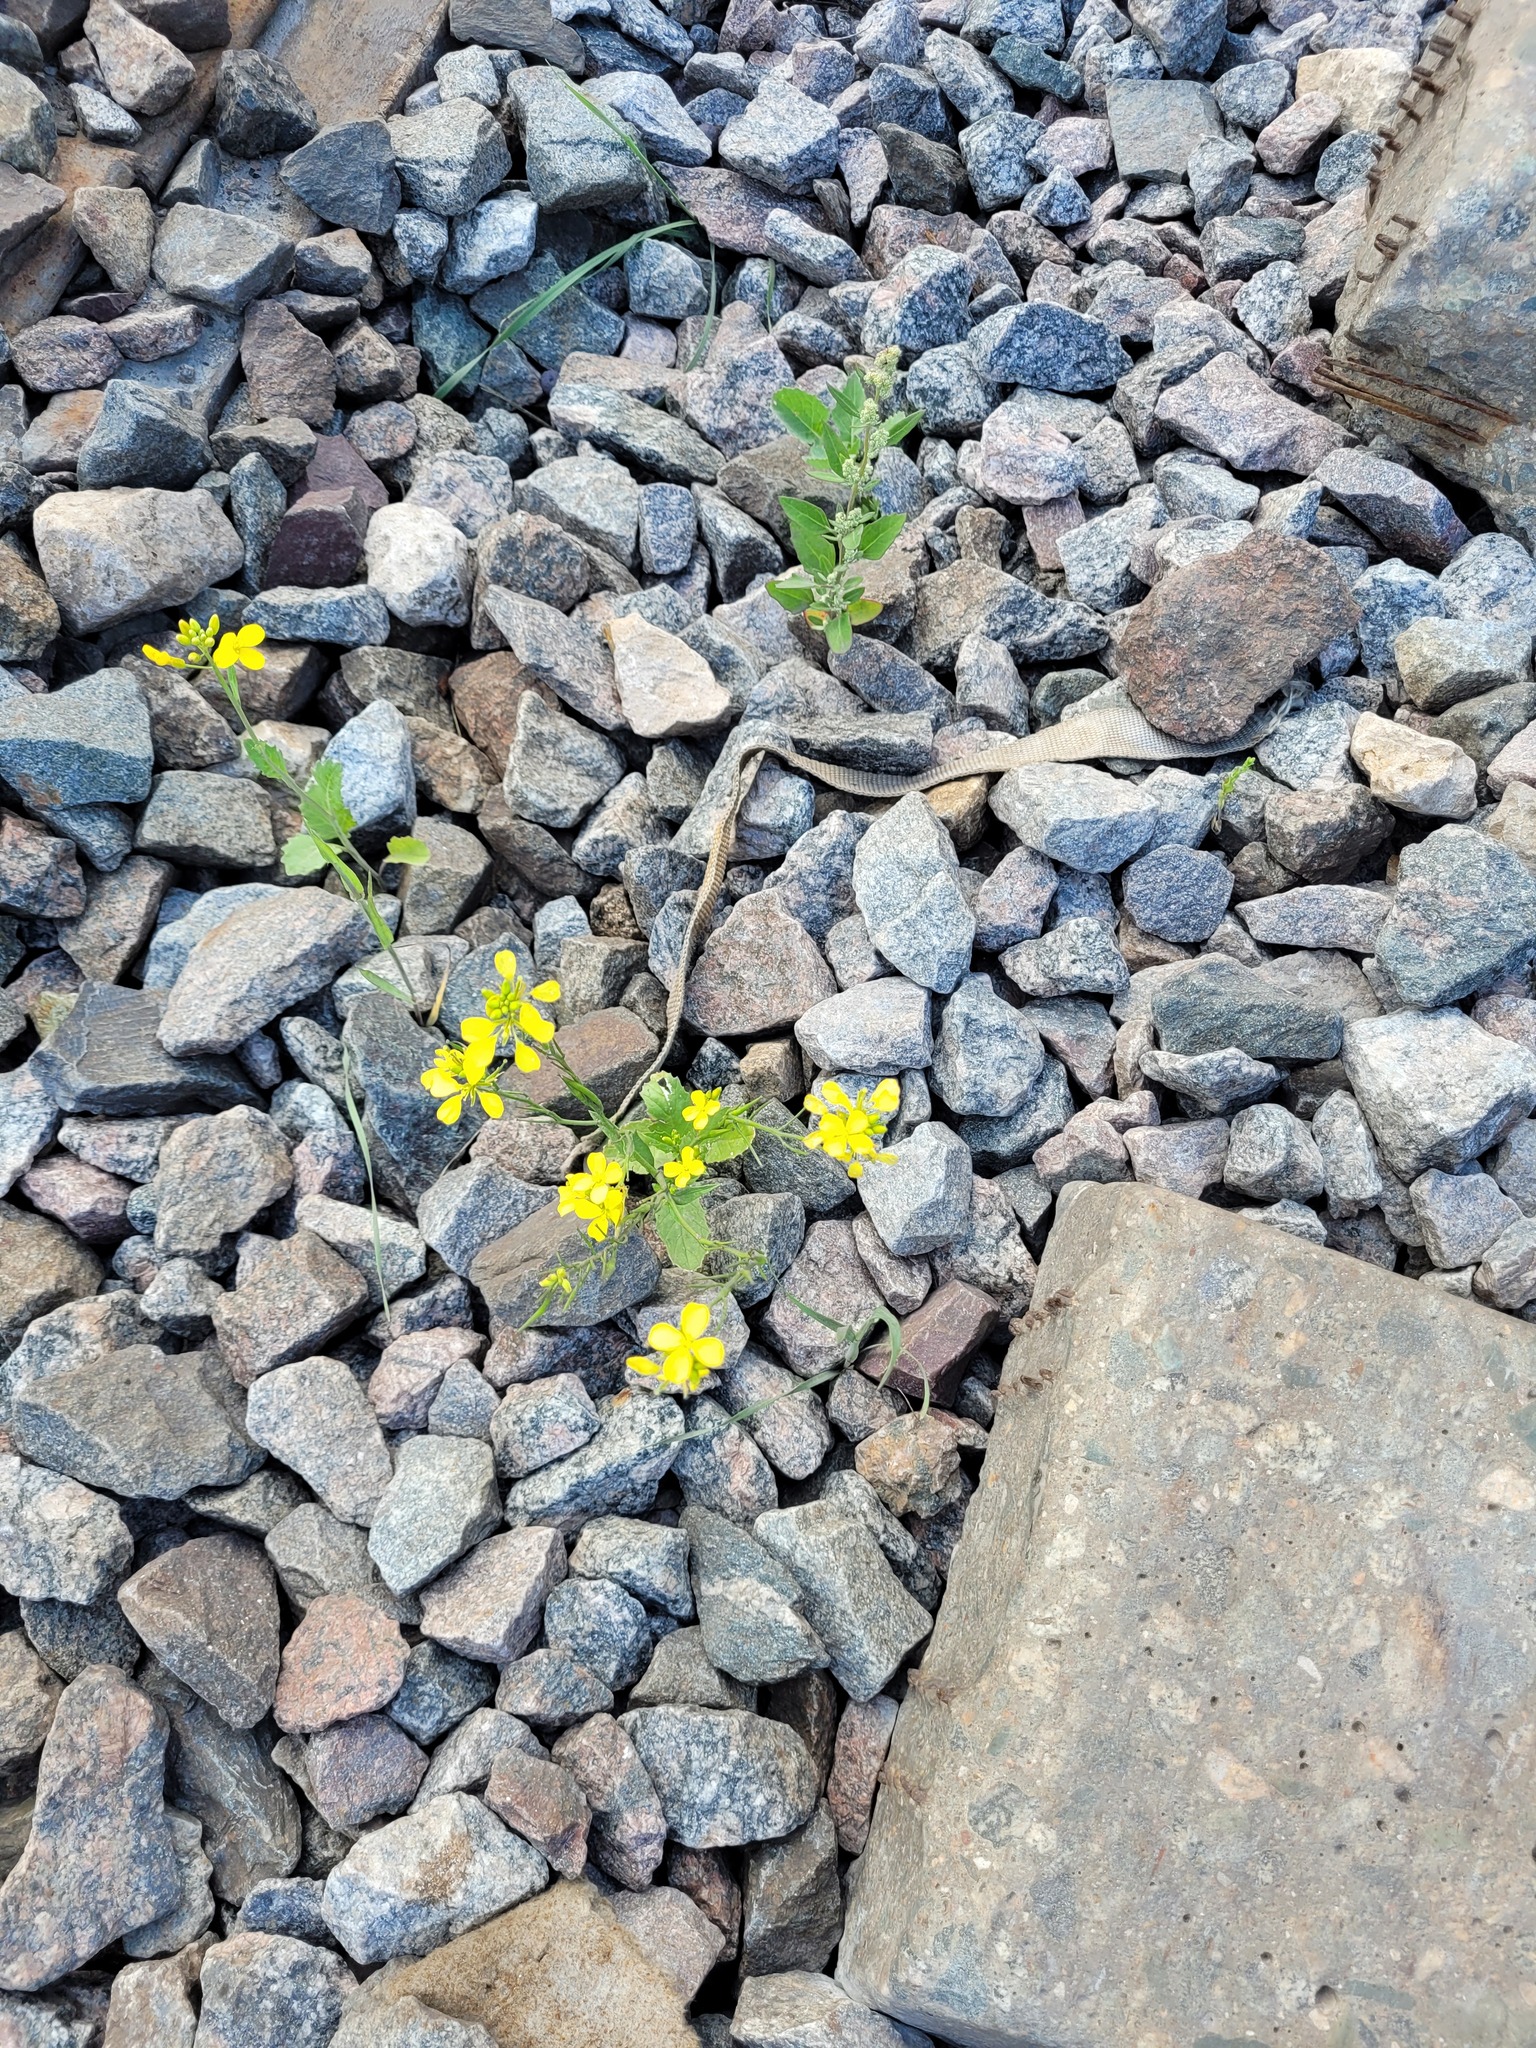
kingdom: Plantae
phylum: Tracheophyta
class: Magnoliopsida
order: Brassicales
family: Brassicaceae
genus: Sinapis
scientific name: Sinapis arvensis
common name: Charlock
